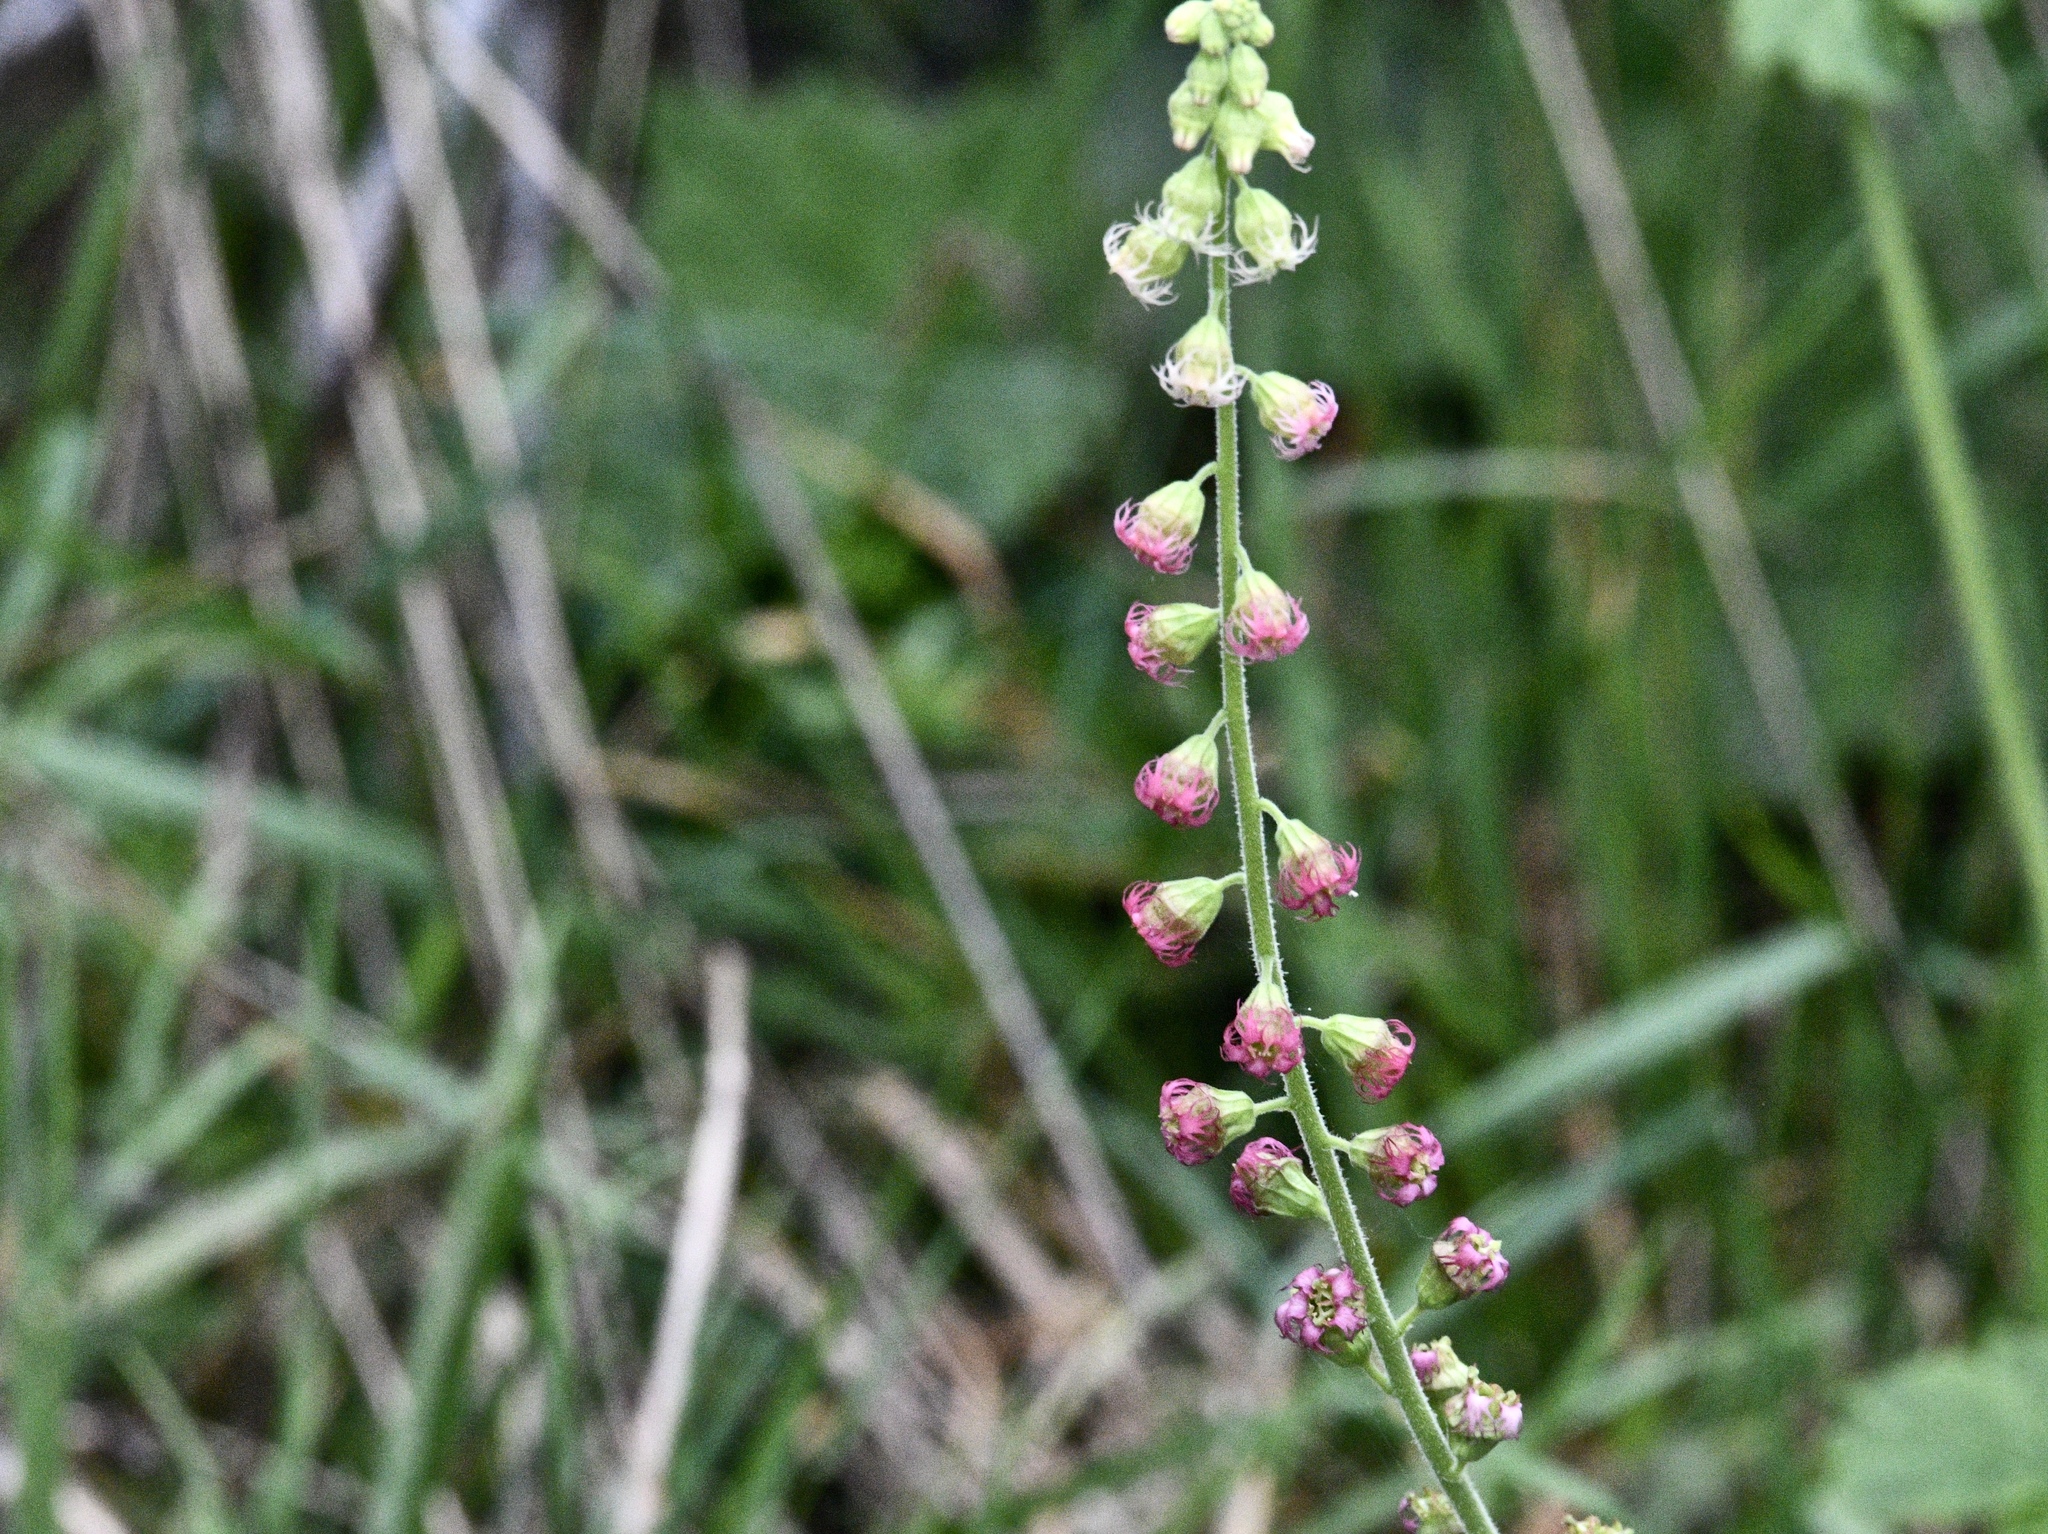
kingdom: Plantae
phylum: Tracheophyta
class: Magnoliopsida
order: Saxifragales
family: Saxifragaceae
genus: Tellima
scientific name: Tellima grandiflora
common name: Fringecups
